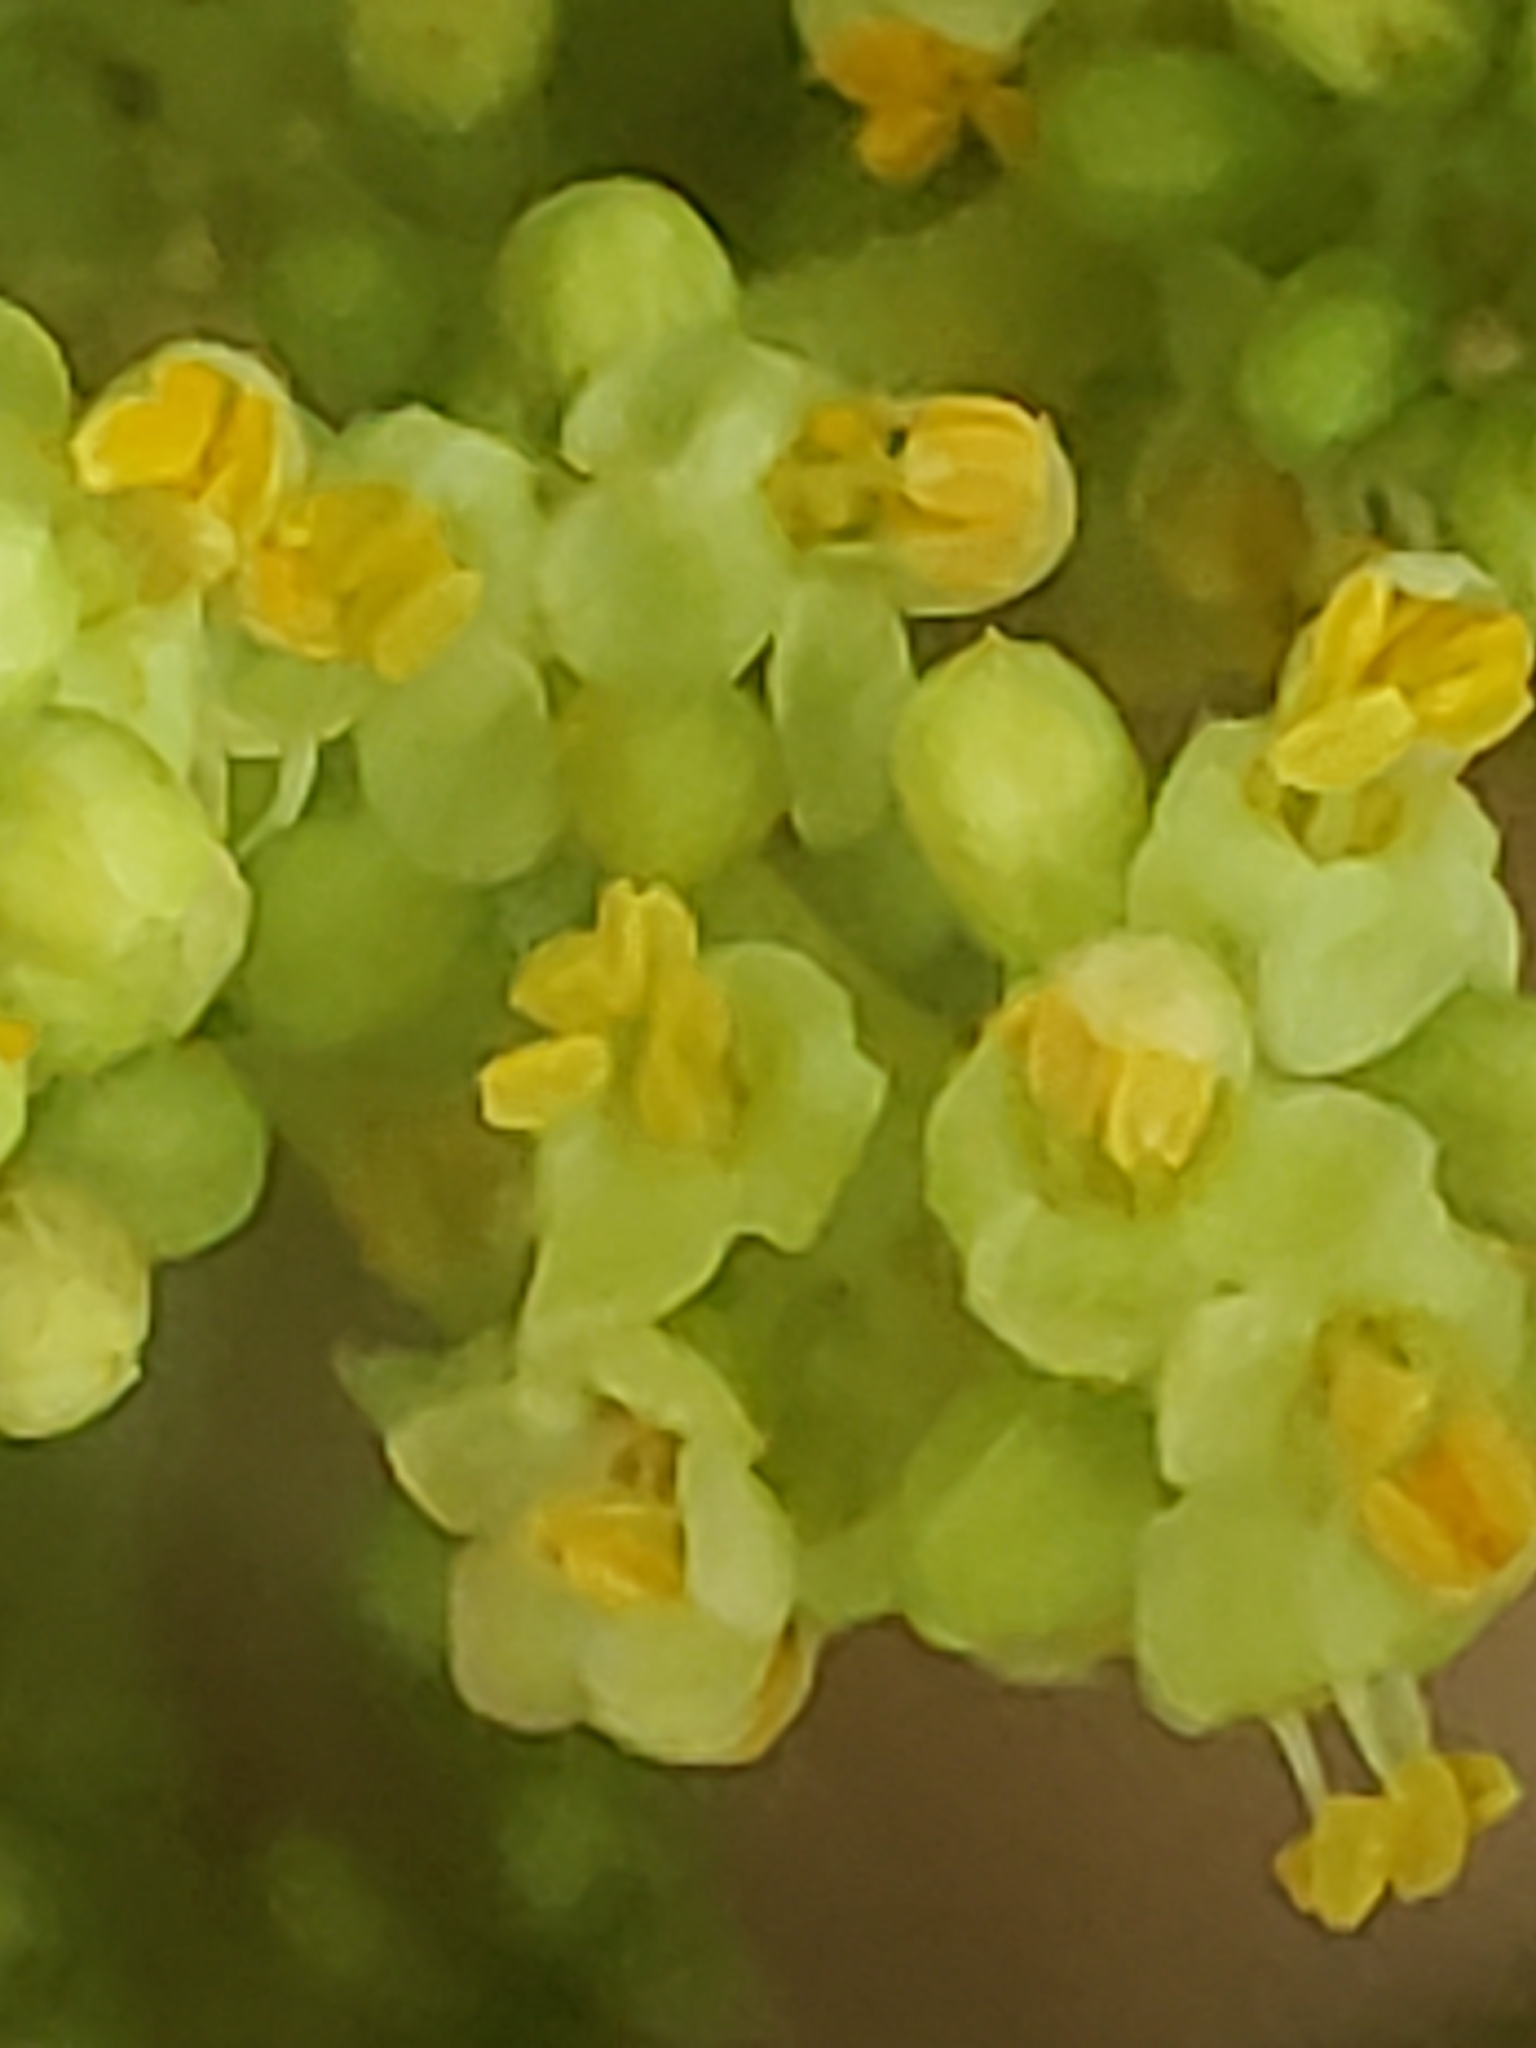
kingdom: Plantae
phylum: Tracheophyta
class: Magnoliopsida
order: Sapindales
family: Anacardiaceae
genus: Rhus
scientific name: Rhus copallina
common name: Shining sumac
